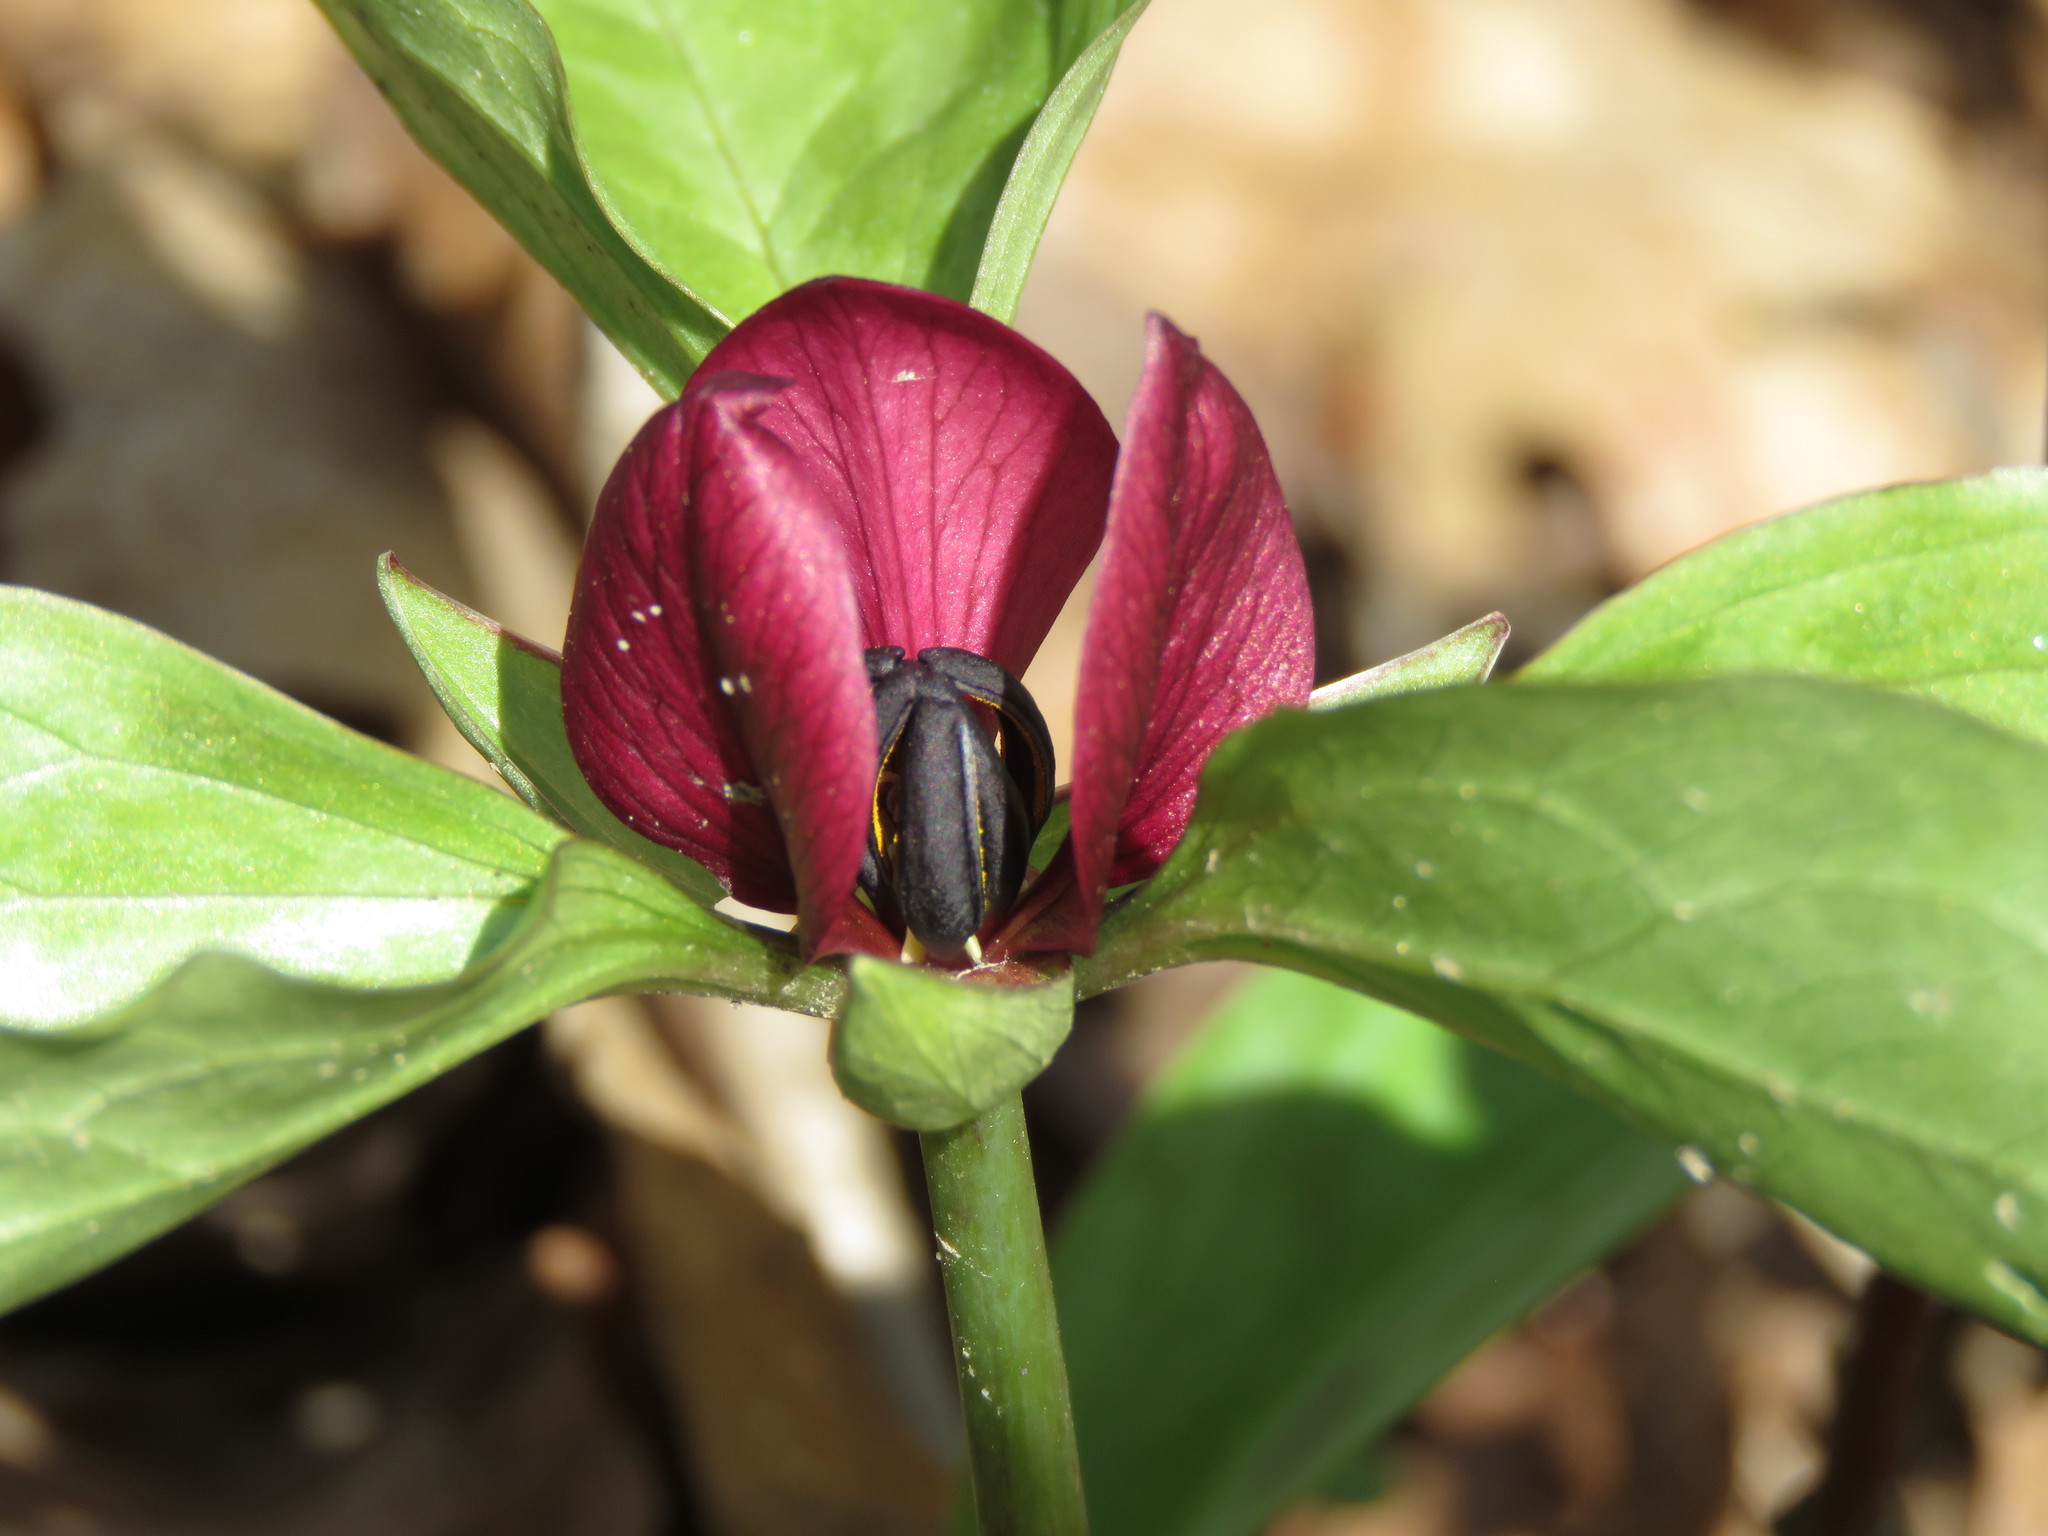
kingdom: Plantae
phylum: Tracheophyta
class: Liliopsida
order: Liliales
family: Melanthiaceae
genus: Trillium
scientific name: Trillium recurvatum
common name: Bloody butcher
